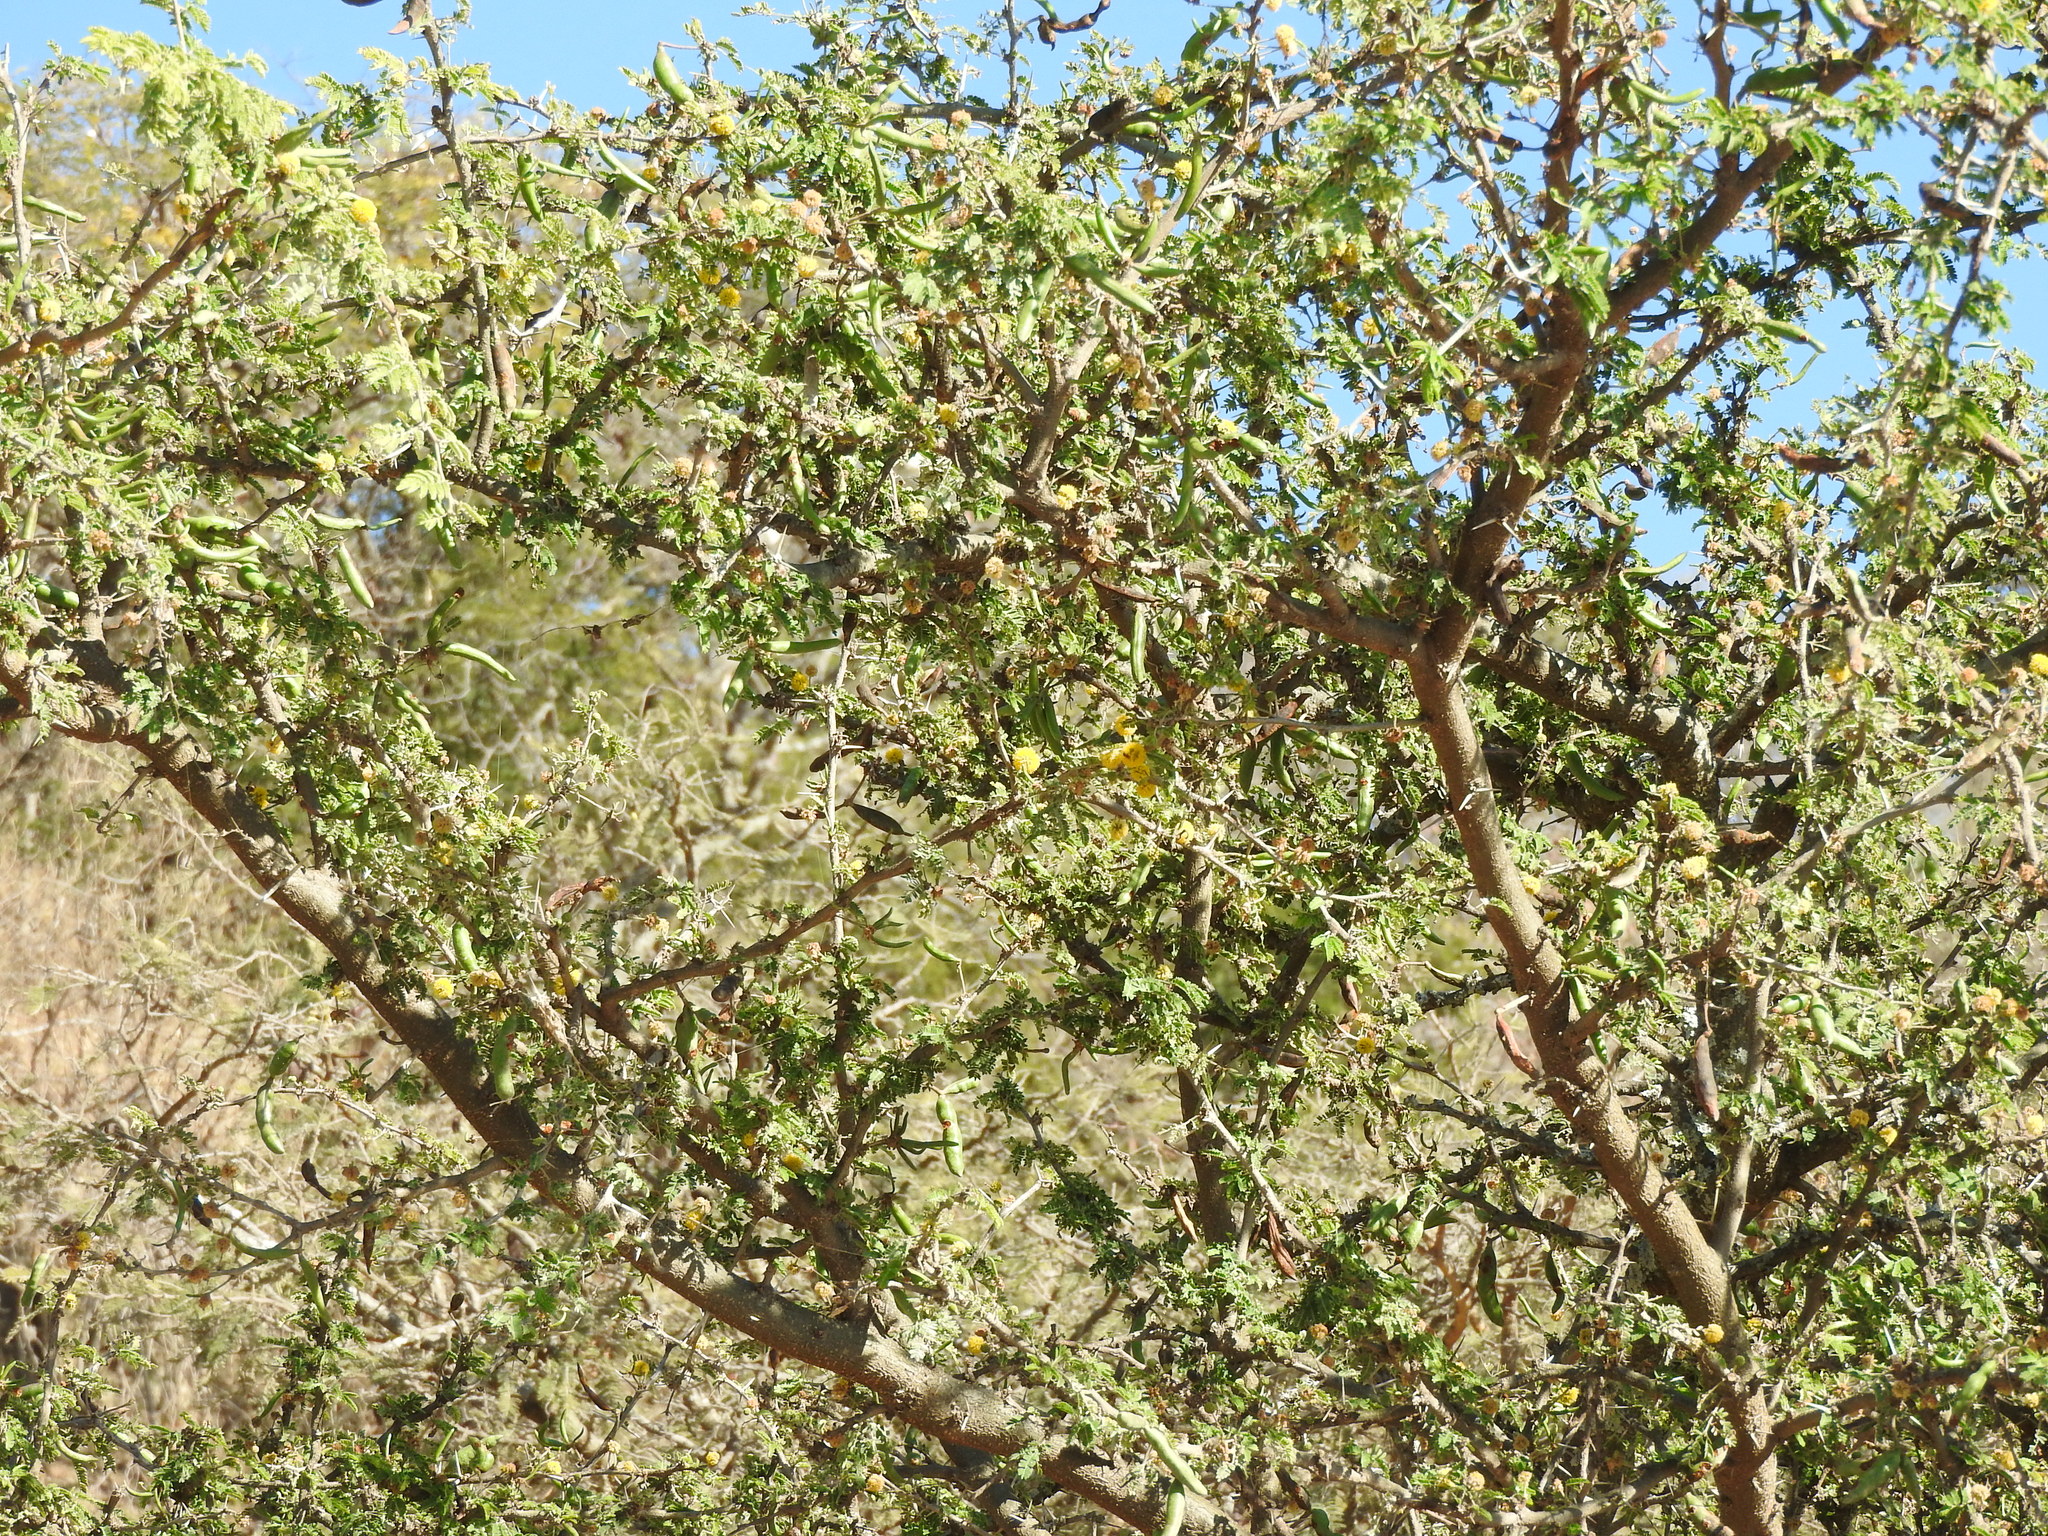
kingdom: Plantae
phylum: Tracheophyta
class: Magnoliopsida
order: Fabales
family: Fabaceae
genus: Vachellia
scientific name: Vachellia farnesiana
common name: Sweet acacia
